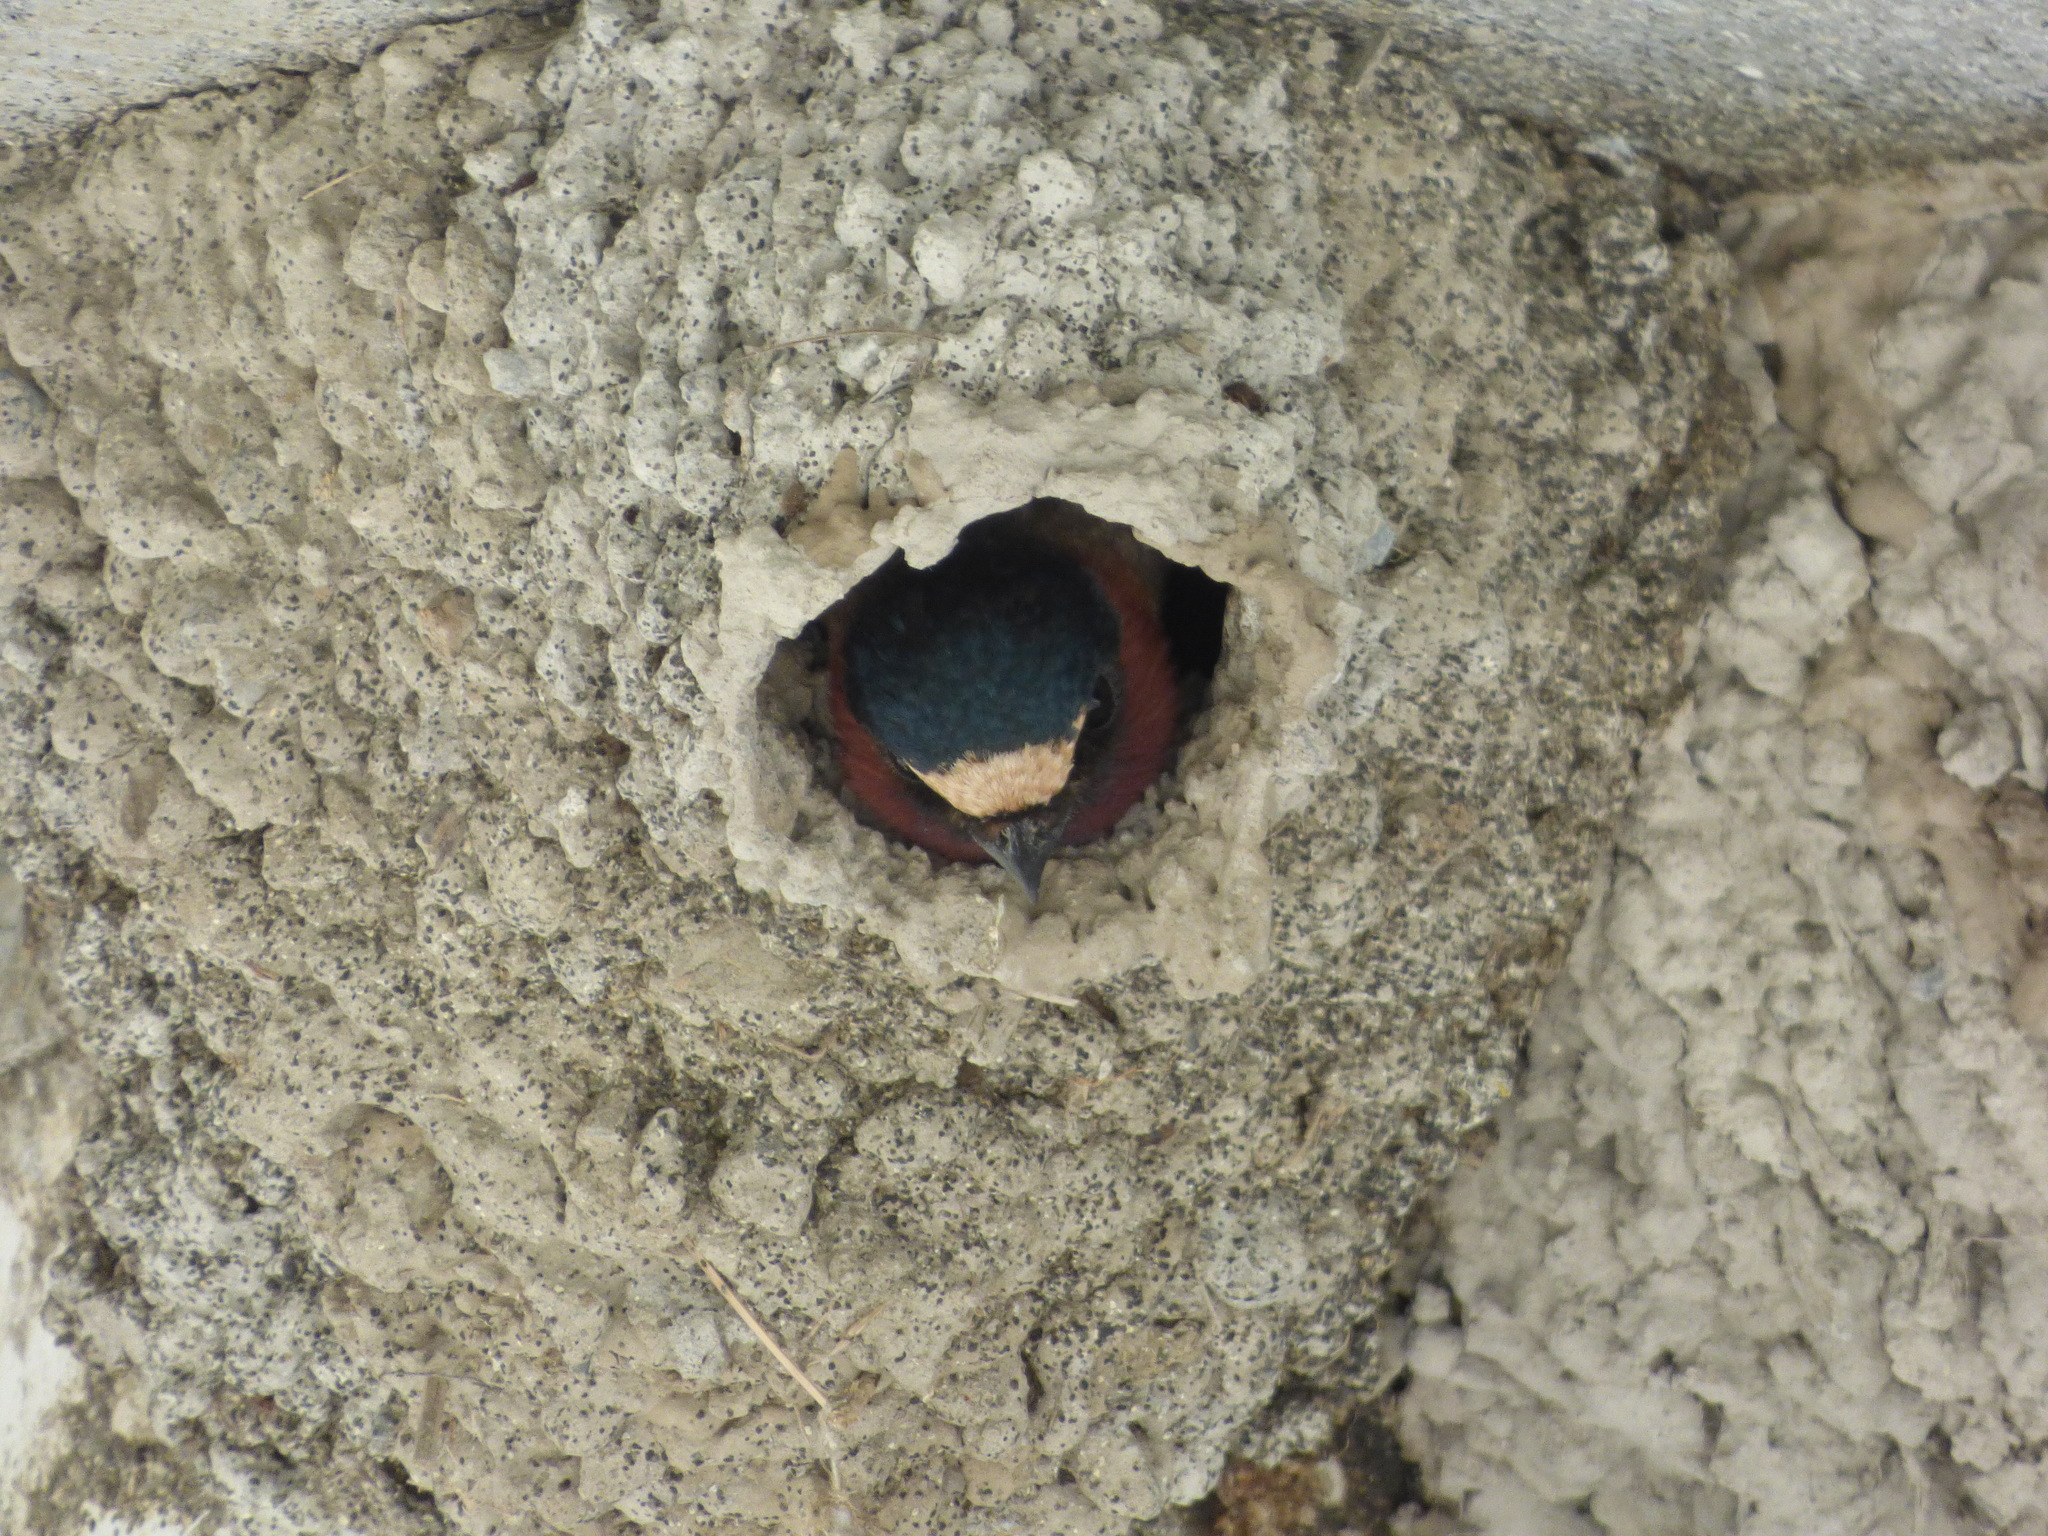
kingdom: Animalia
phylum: Chordata
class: Aves
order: Passeriformes
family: Hirundinidae
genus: Petrochelidon
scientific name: Petrochelidon pyrrhonota
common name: American cliff swallow
